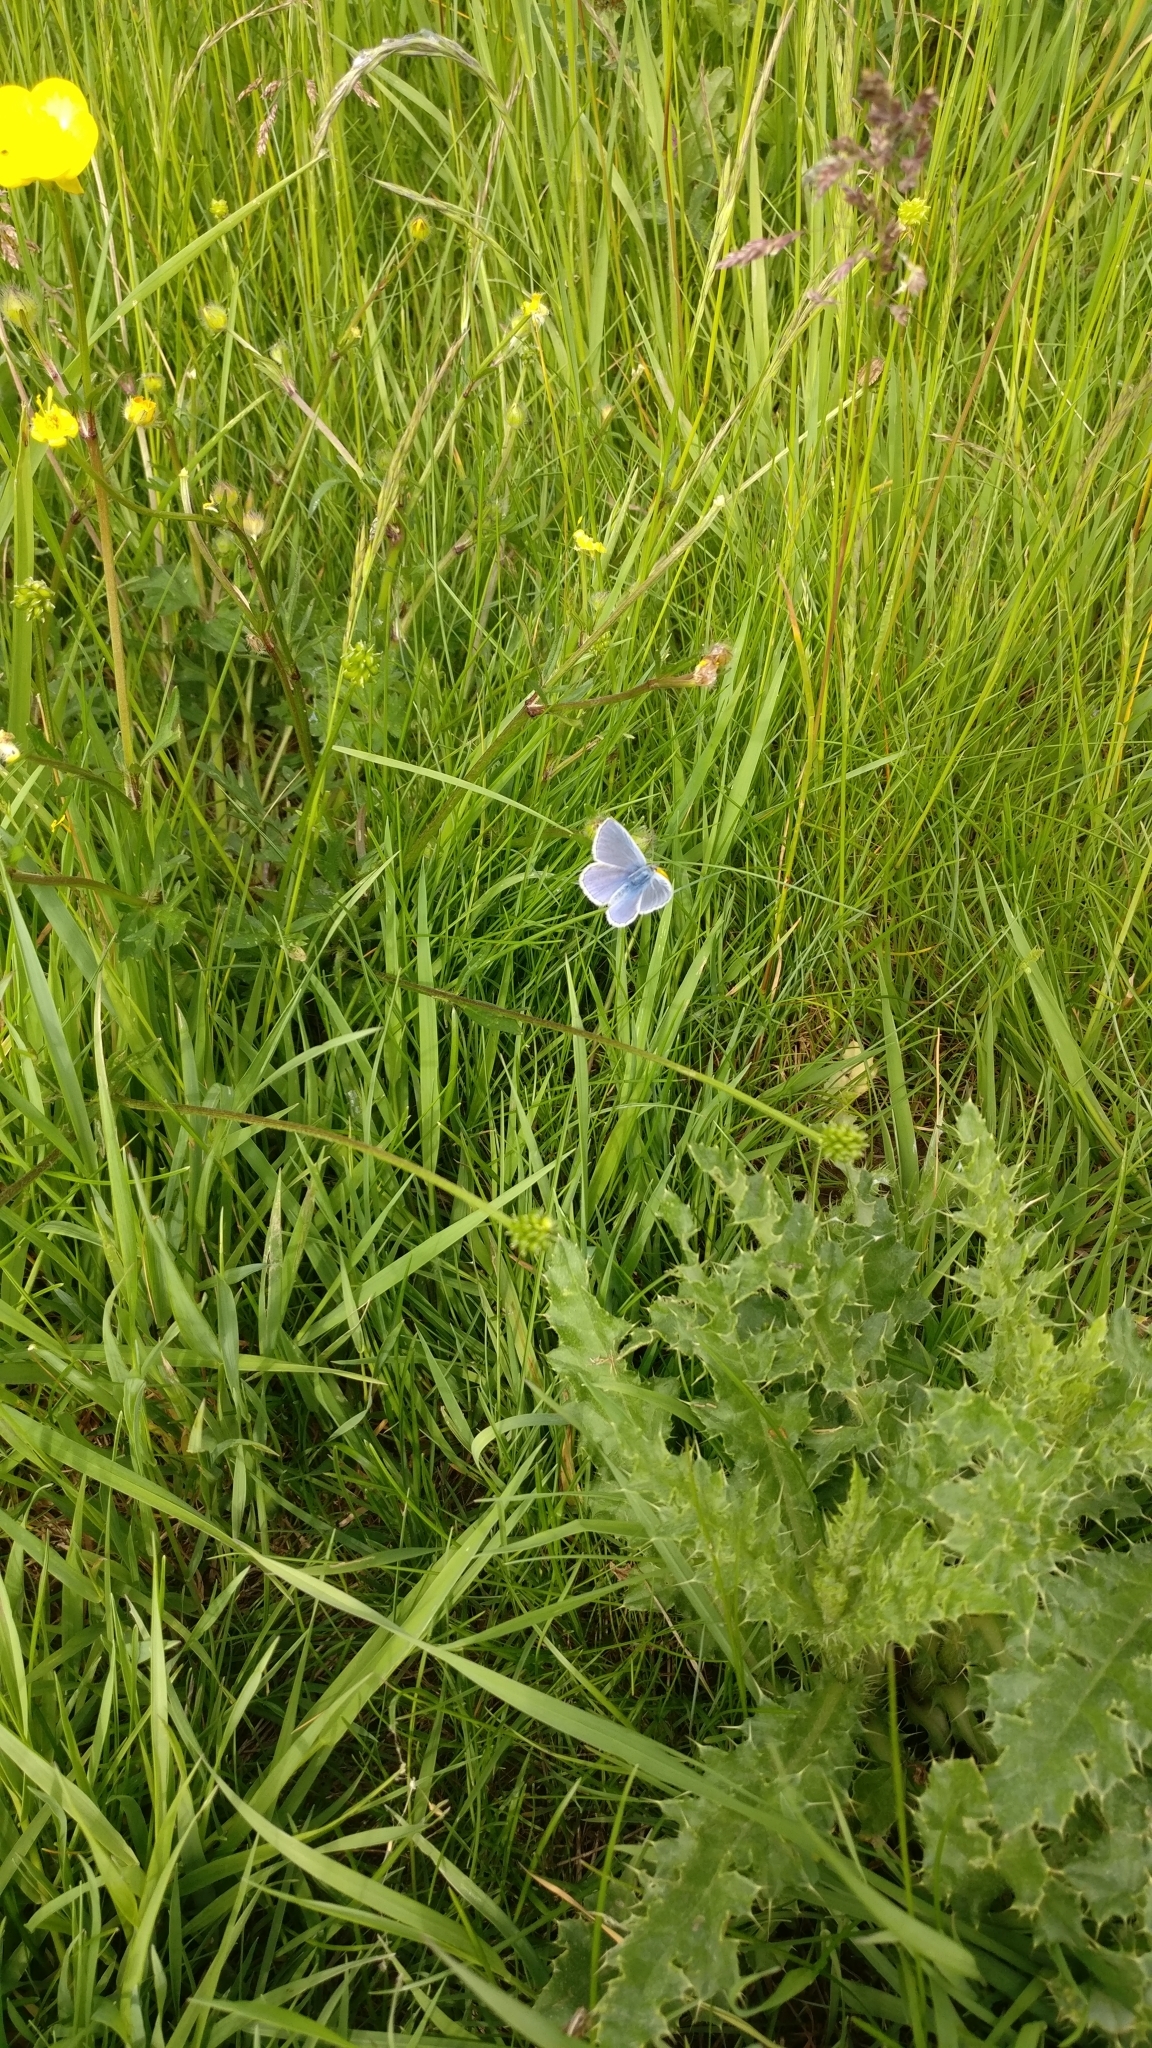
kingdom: Animalia
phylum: Arthropoda
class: Insecta
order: Lepidoptera
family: Lycaenidae
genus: Polyommatus
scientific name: Polyommatus icarus
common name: Common blue
